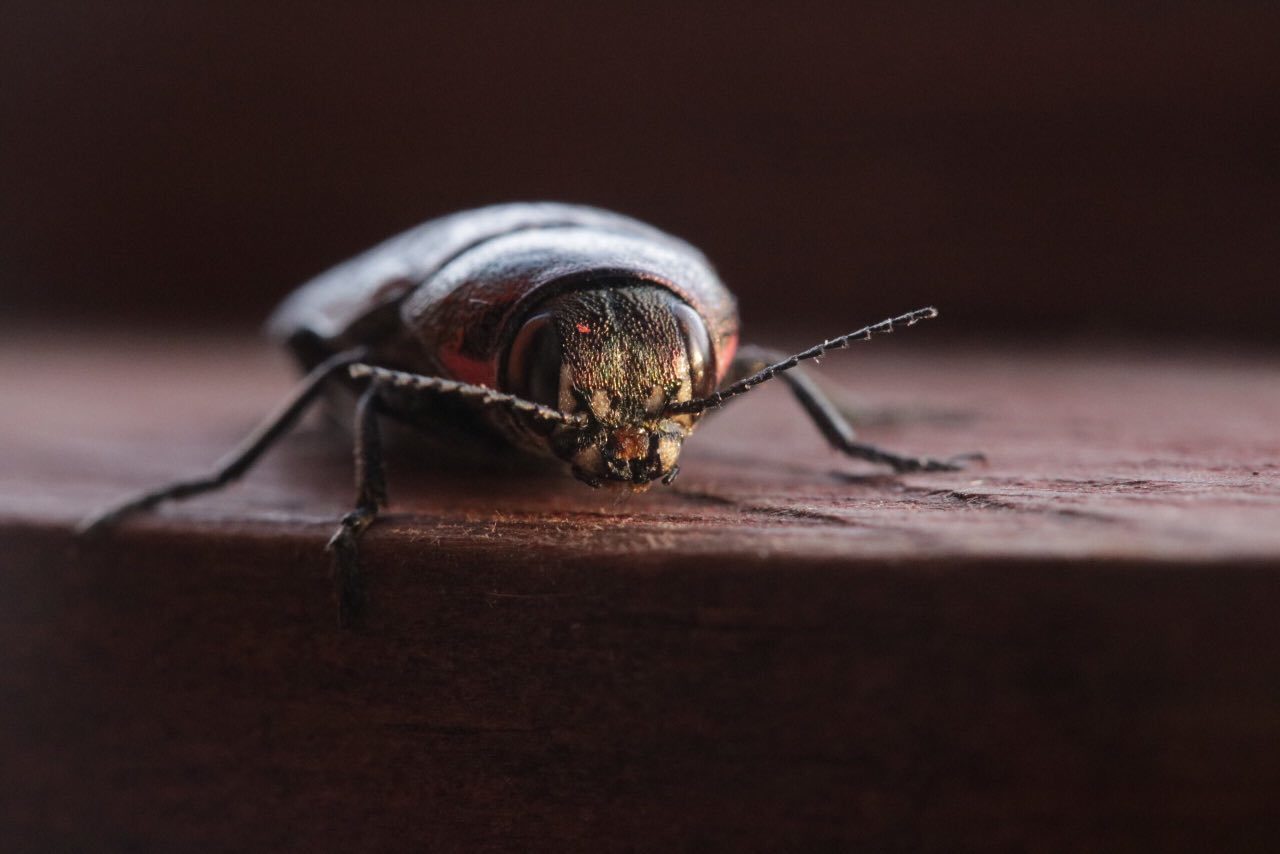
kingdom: Animalia
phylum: Arthropoda
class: Insecta
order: Coleoptera
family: Buprestidae
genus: Buprestis
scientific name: Buprestis haemorrhoidalis
